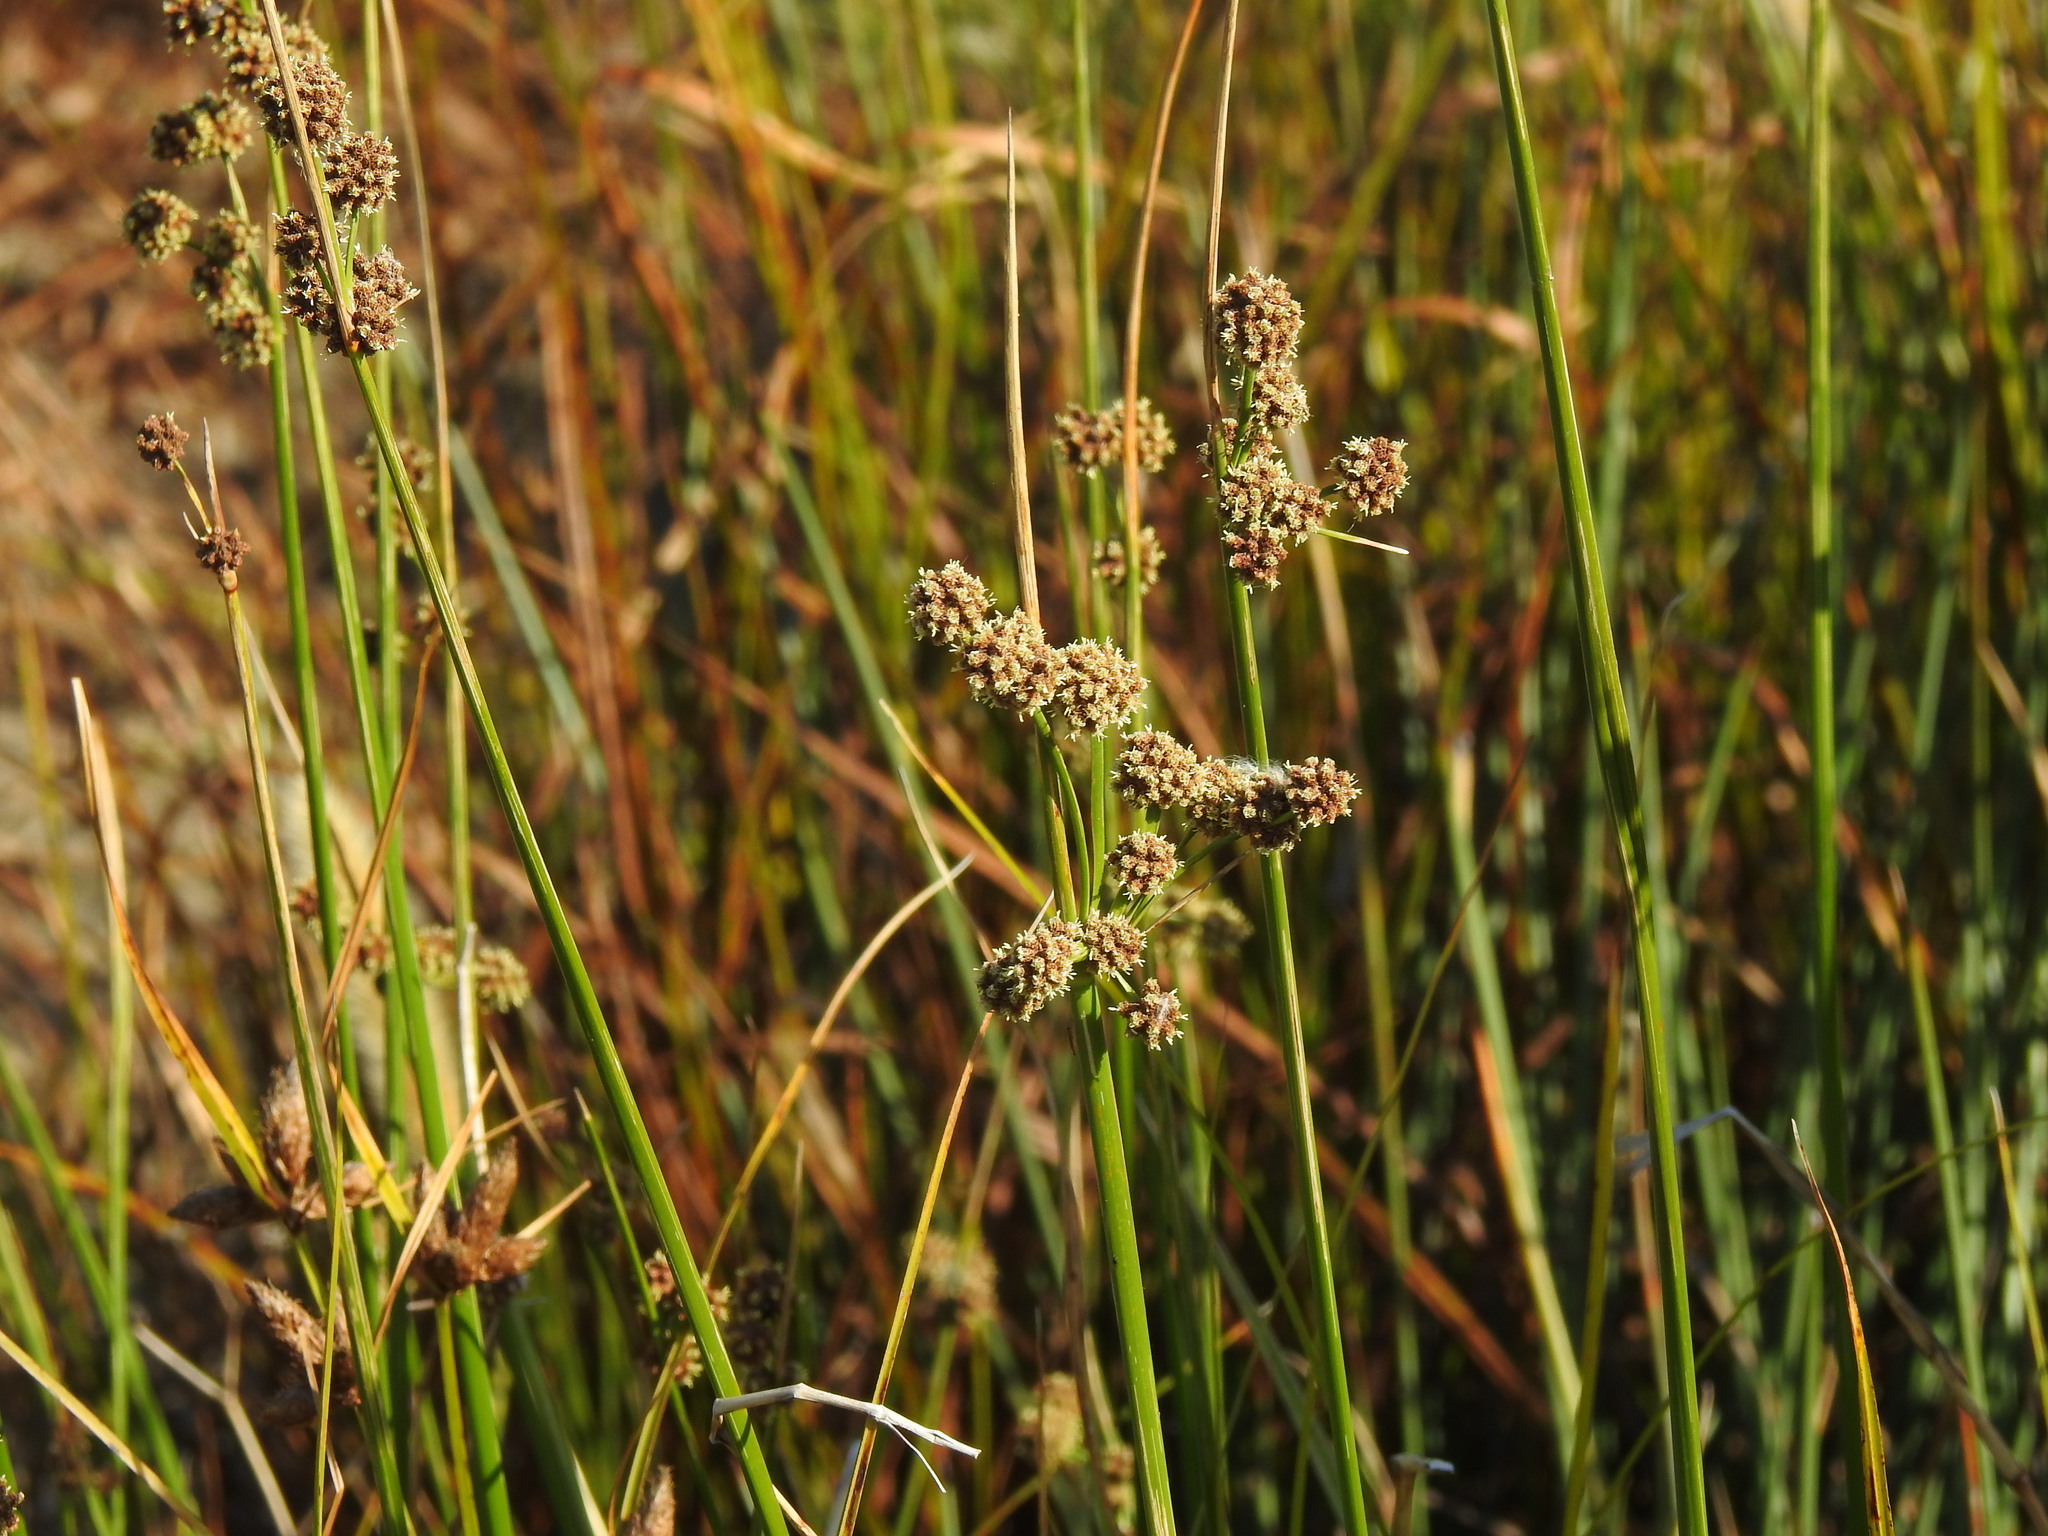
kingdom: Plantae
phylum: Tracheophyta
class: Liliopsida
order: Poales
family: Cyperaceae
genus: Scirpoides
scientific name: Scirpoides holoschoenus
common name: Round-headed club-rush
